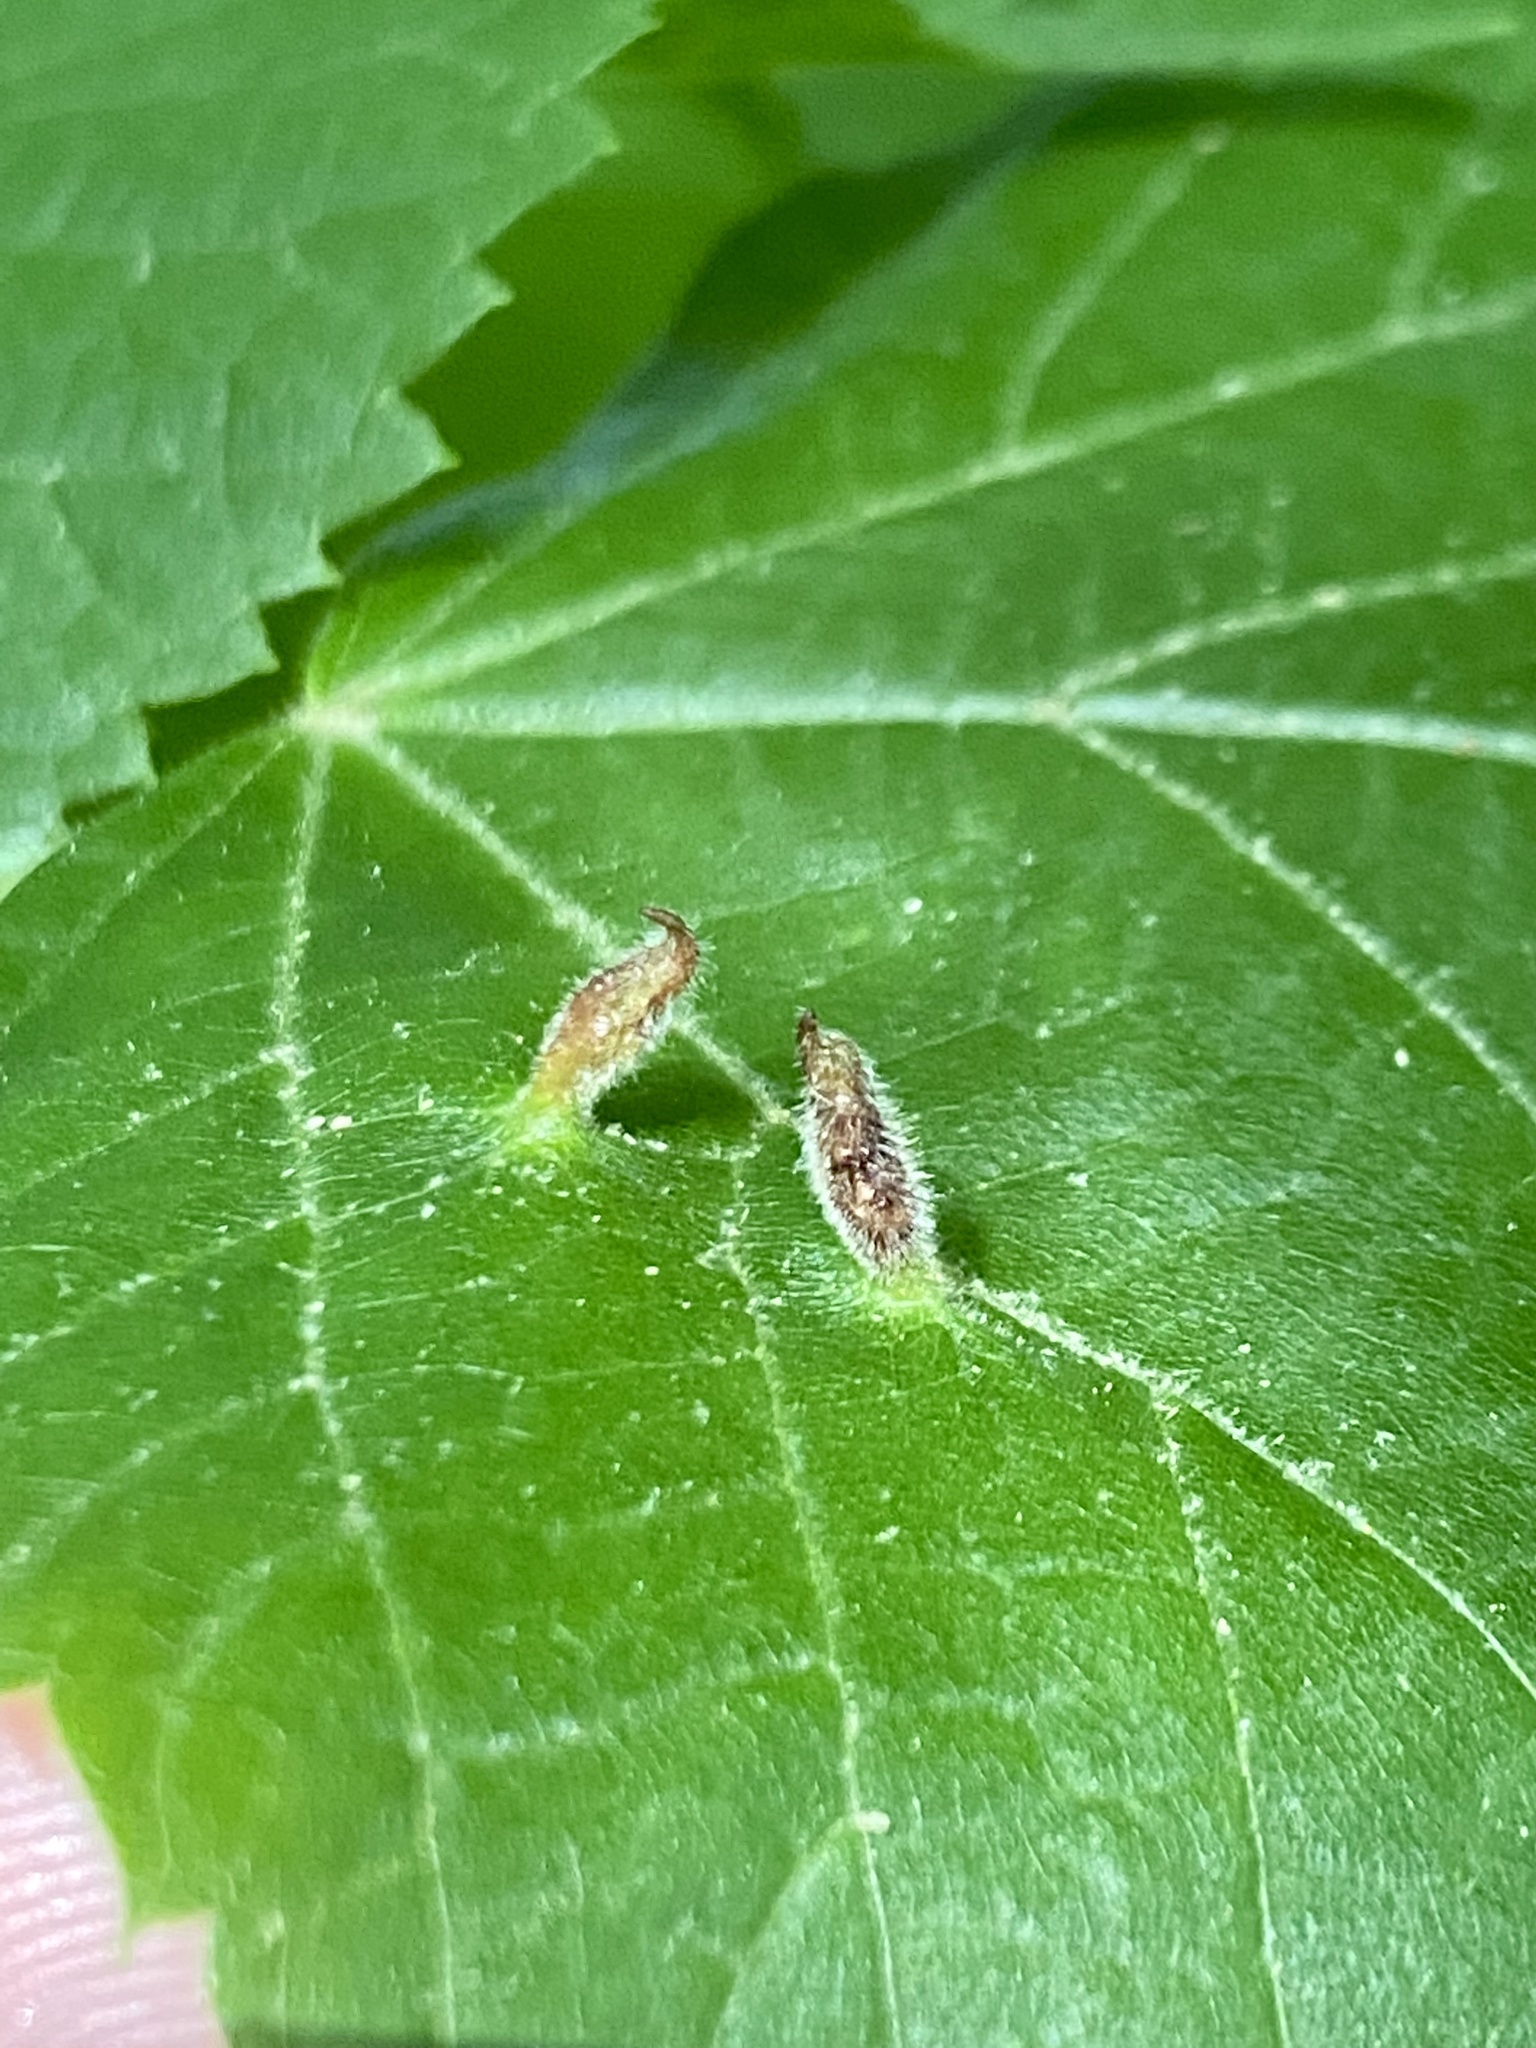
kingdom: Animalia
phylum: Arthropoda
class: Arachnida
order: Trombidiformes
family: Eriophyidae
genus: Eriophyes
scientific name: Eriophyes tiliae
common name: Red nail gall mite
